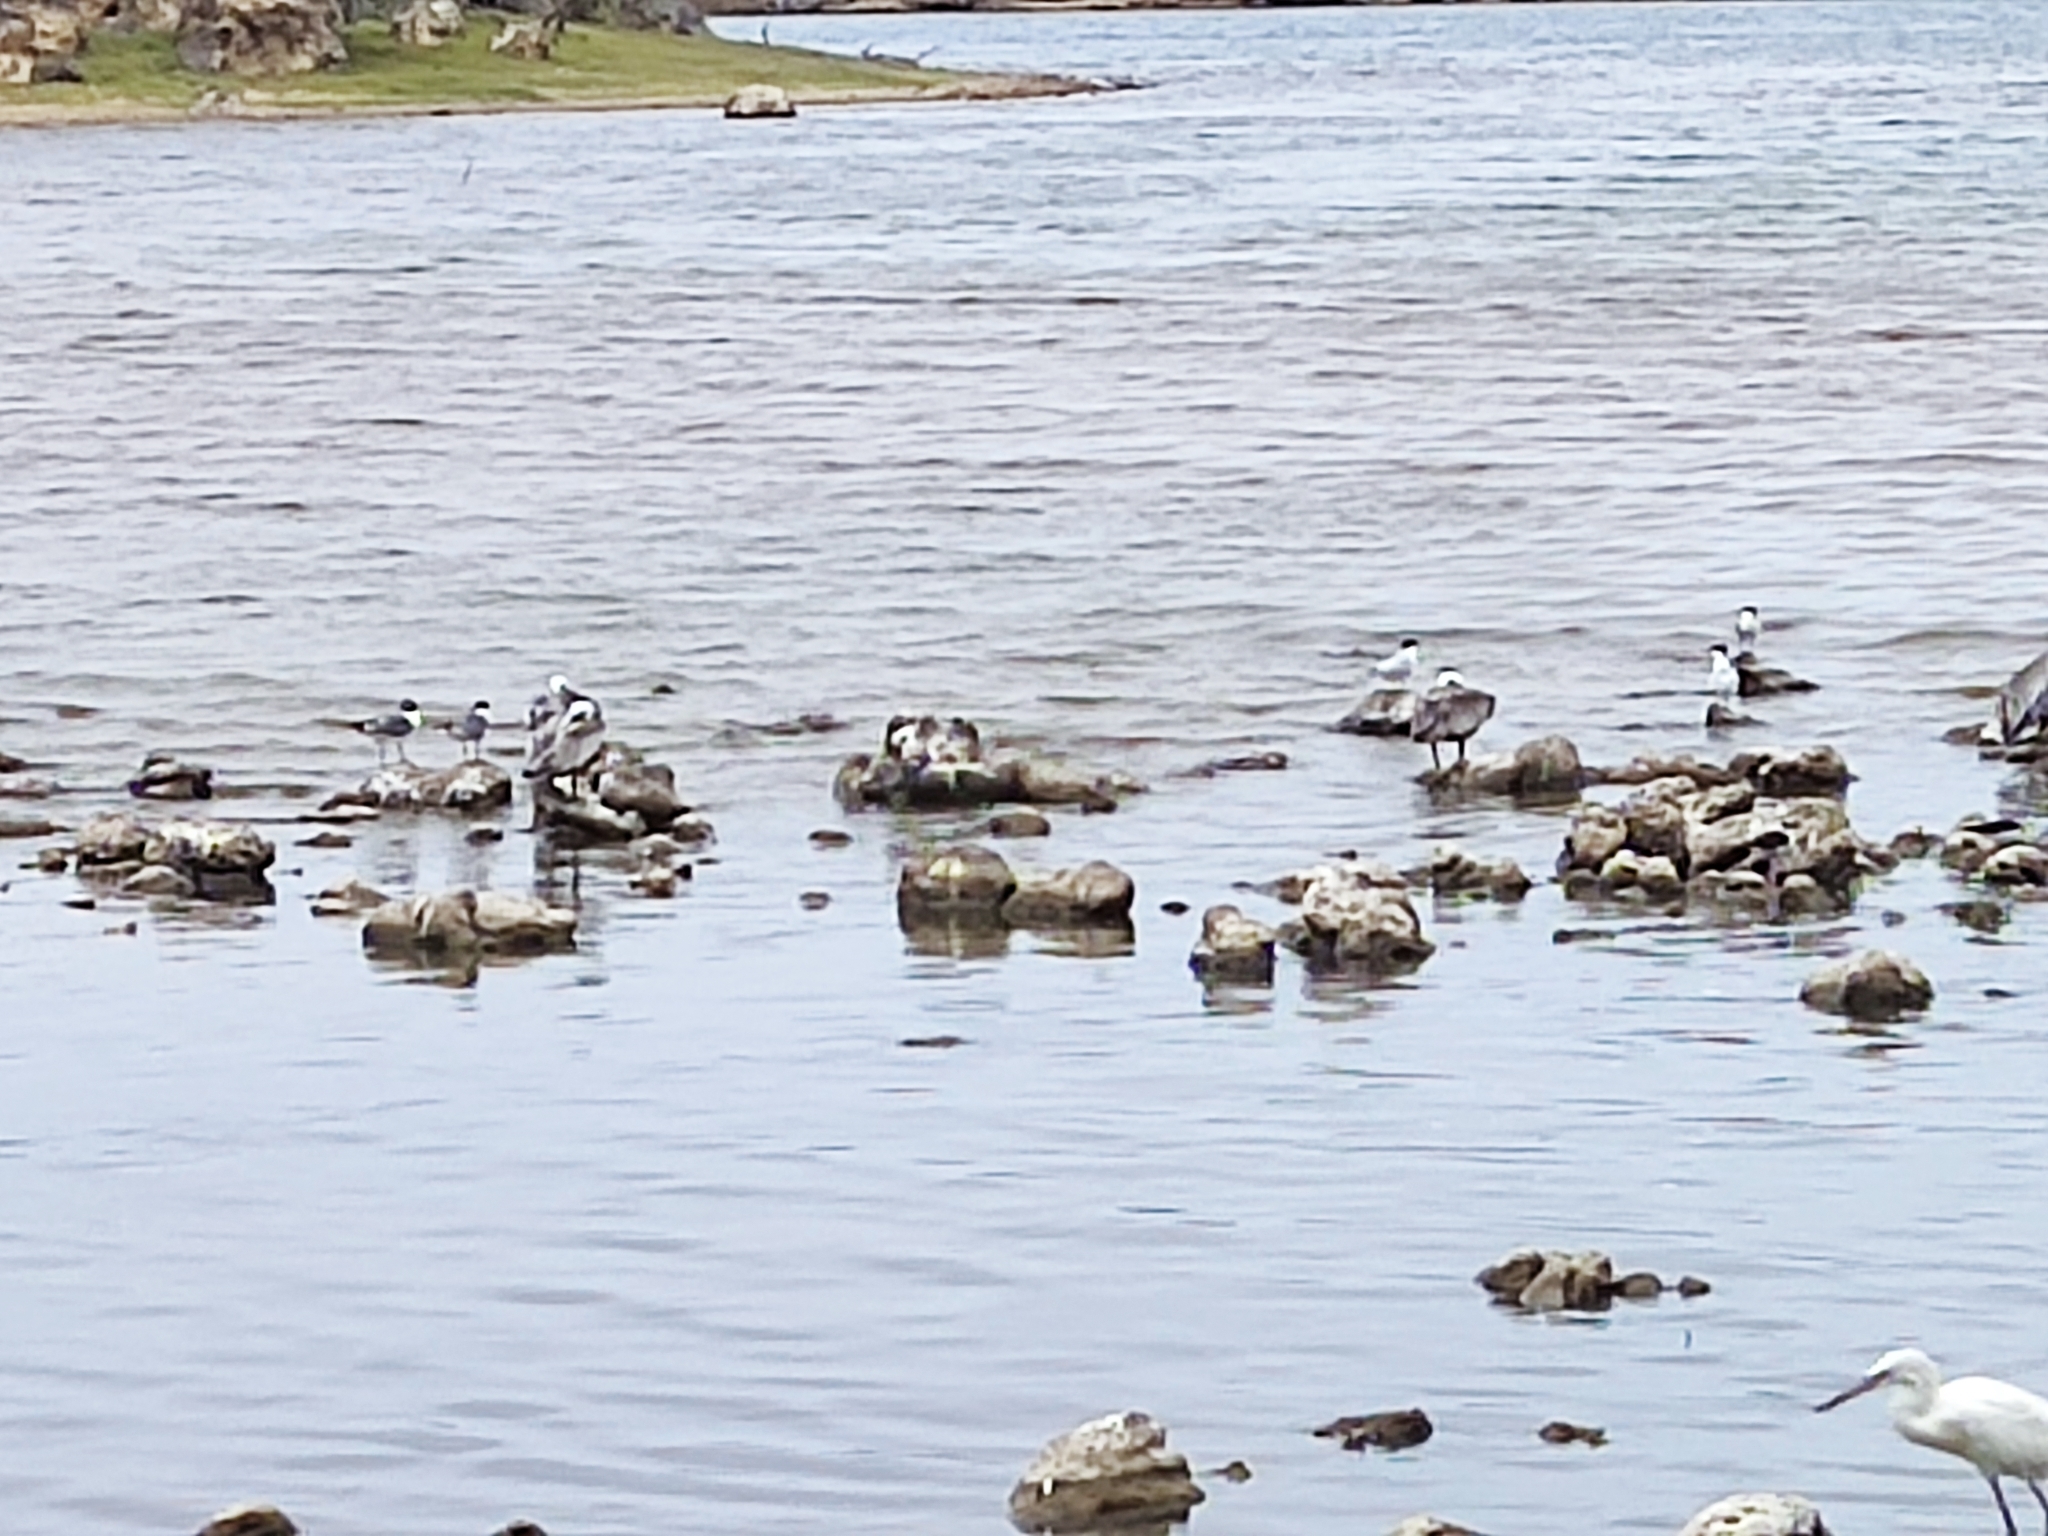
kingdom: Animalia
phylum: Chordata
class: Aves
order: Charadriiformes
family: Laridae
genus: Leucophaeus
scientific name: Leucophaeus atricilla
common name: Laughing gull
